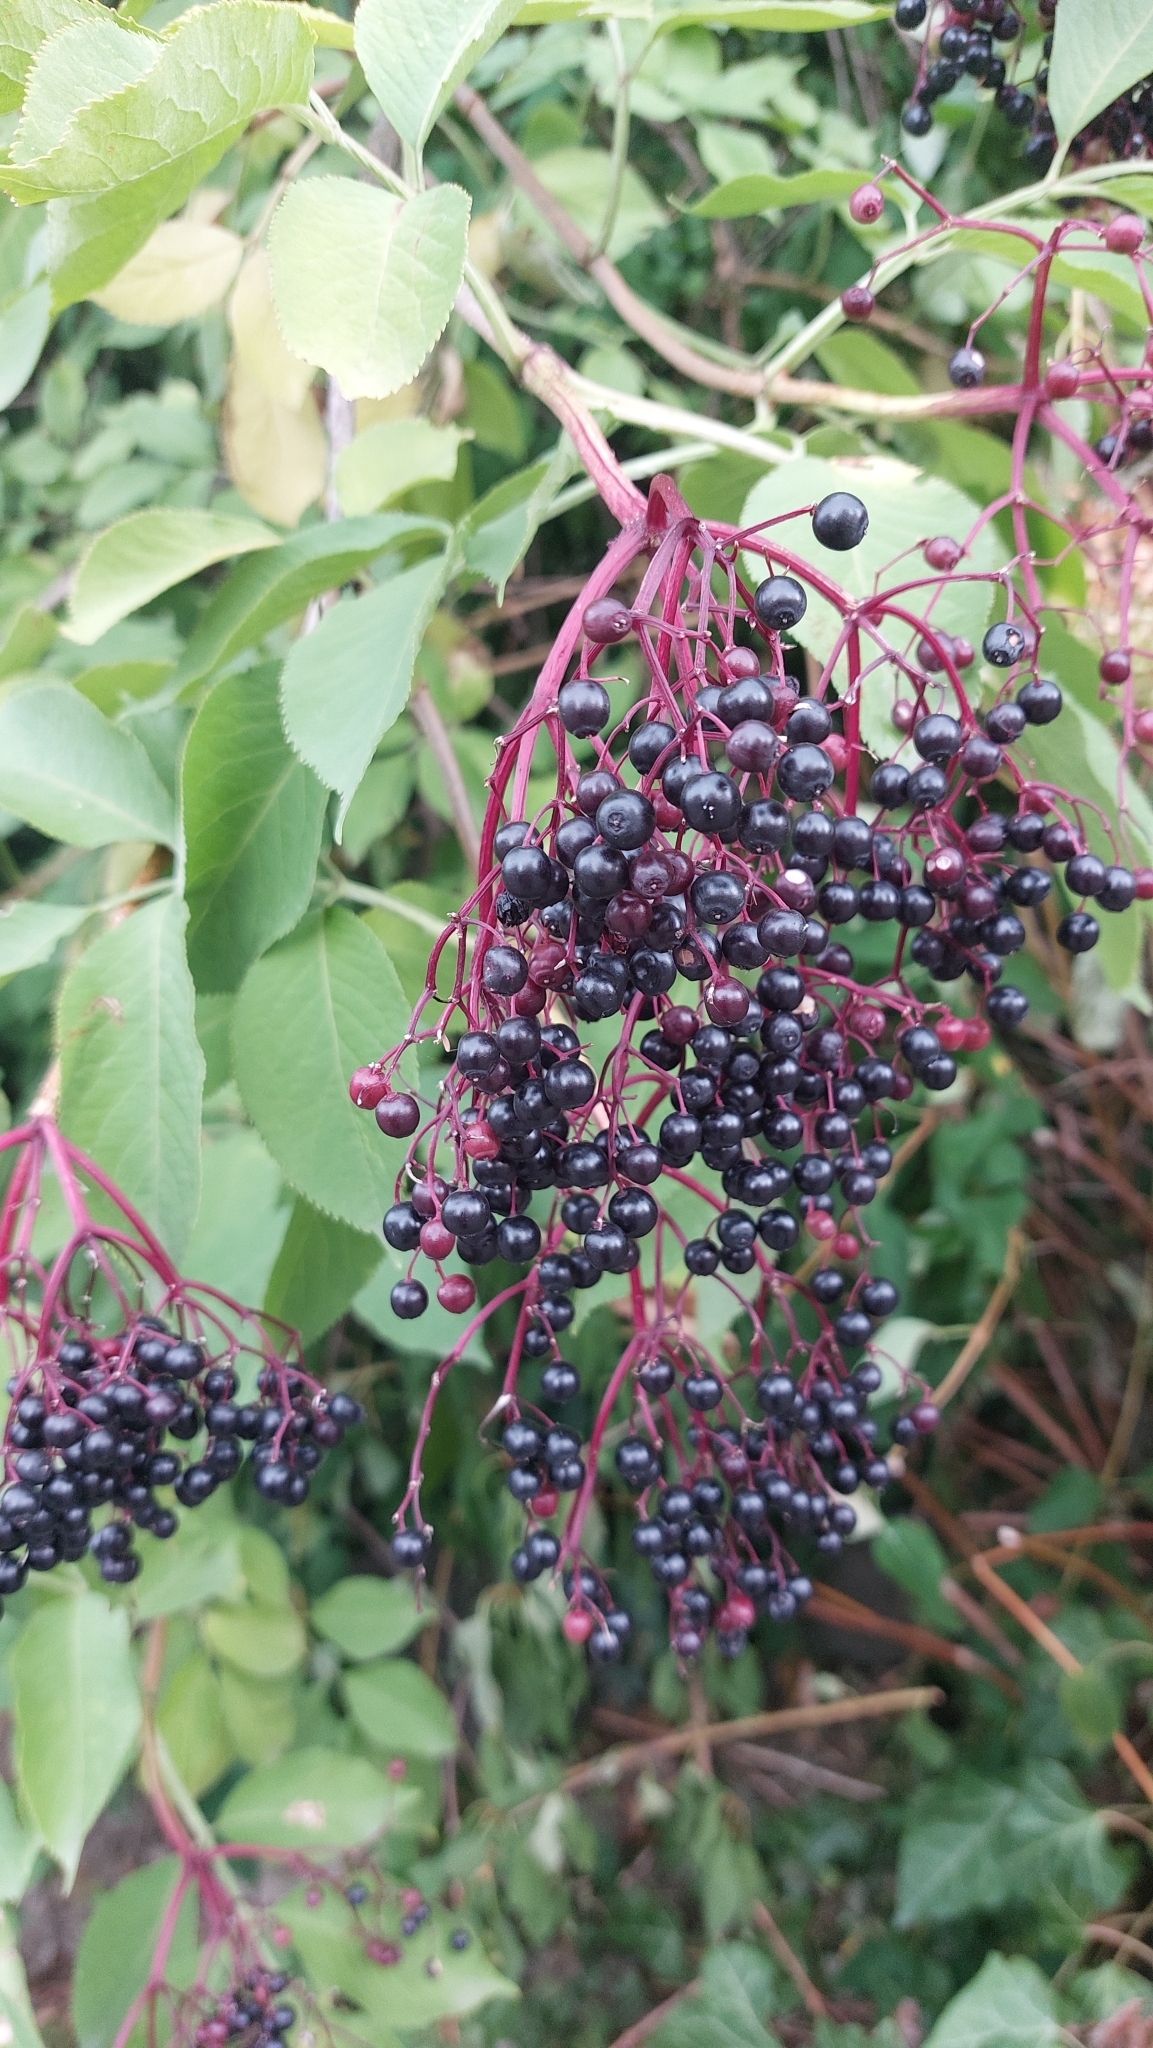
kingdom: Plantae
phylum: Tracheophyta
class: Magnoliopsida
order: Dipsacales
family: Viburnaceae
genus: Sambucus
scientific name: Sambucus nigra
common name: Elder
